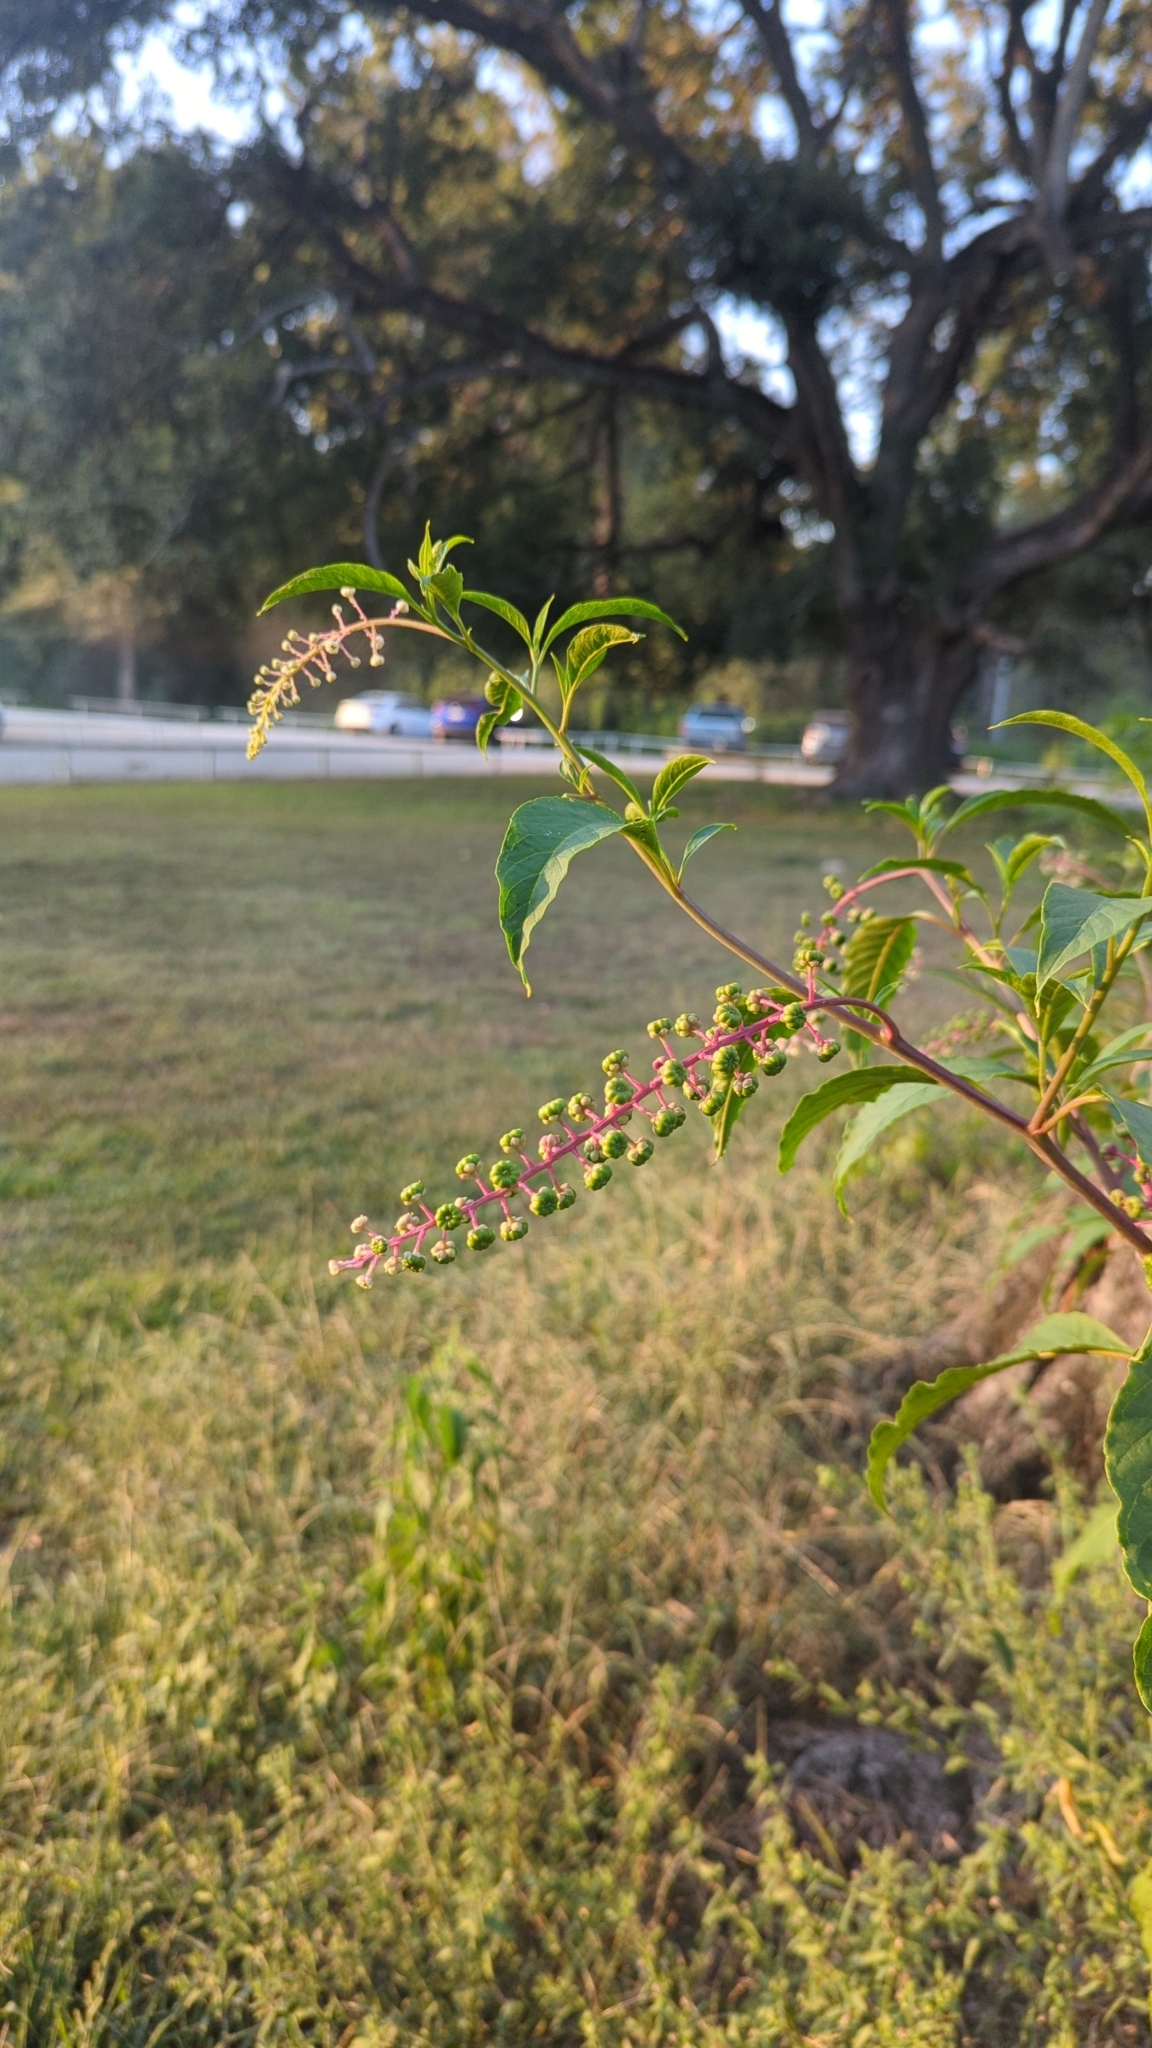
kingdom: Plantae
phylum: Tracheophyta
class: Magnoliopsida
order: Caryophyllales
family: Phytolaccaceae
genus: Phytolacca
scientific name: Phytolacca americana
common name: American pokeweed
